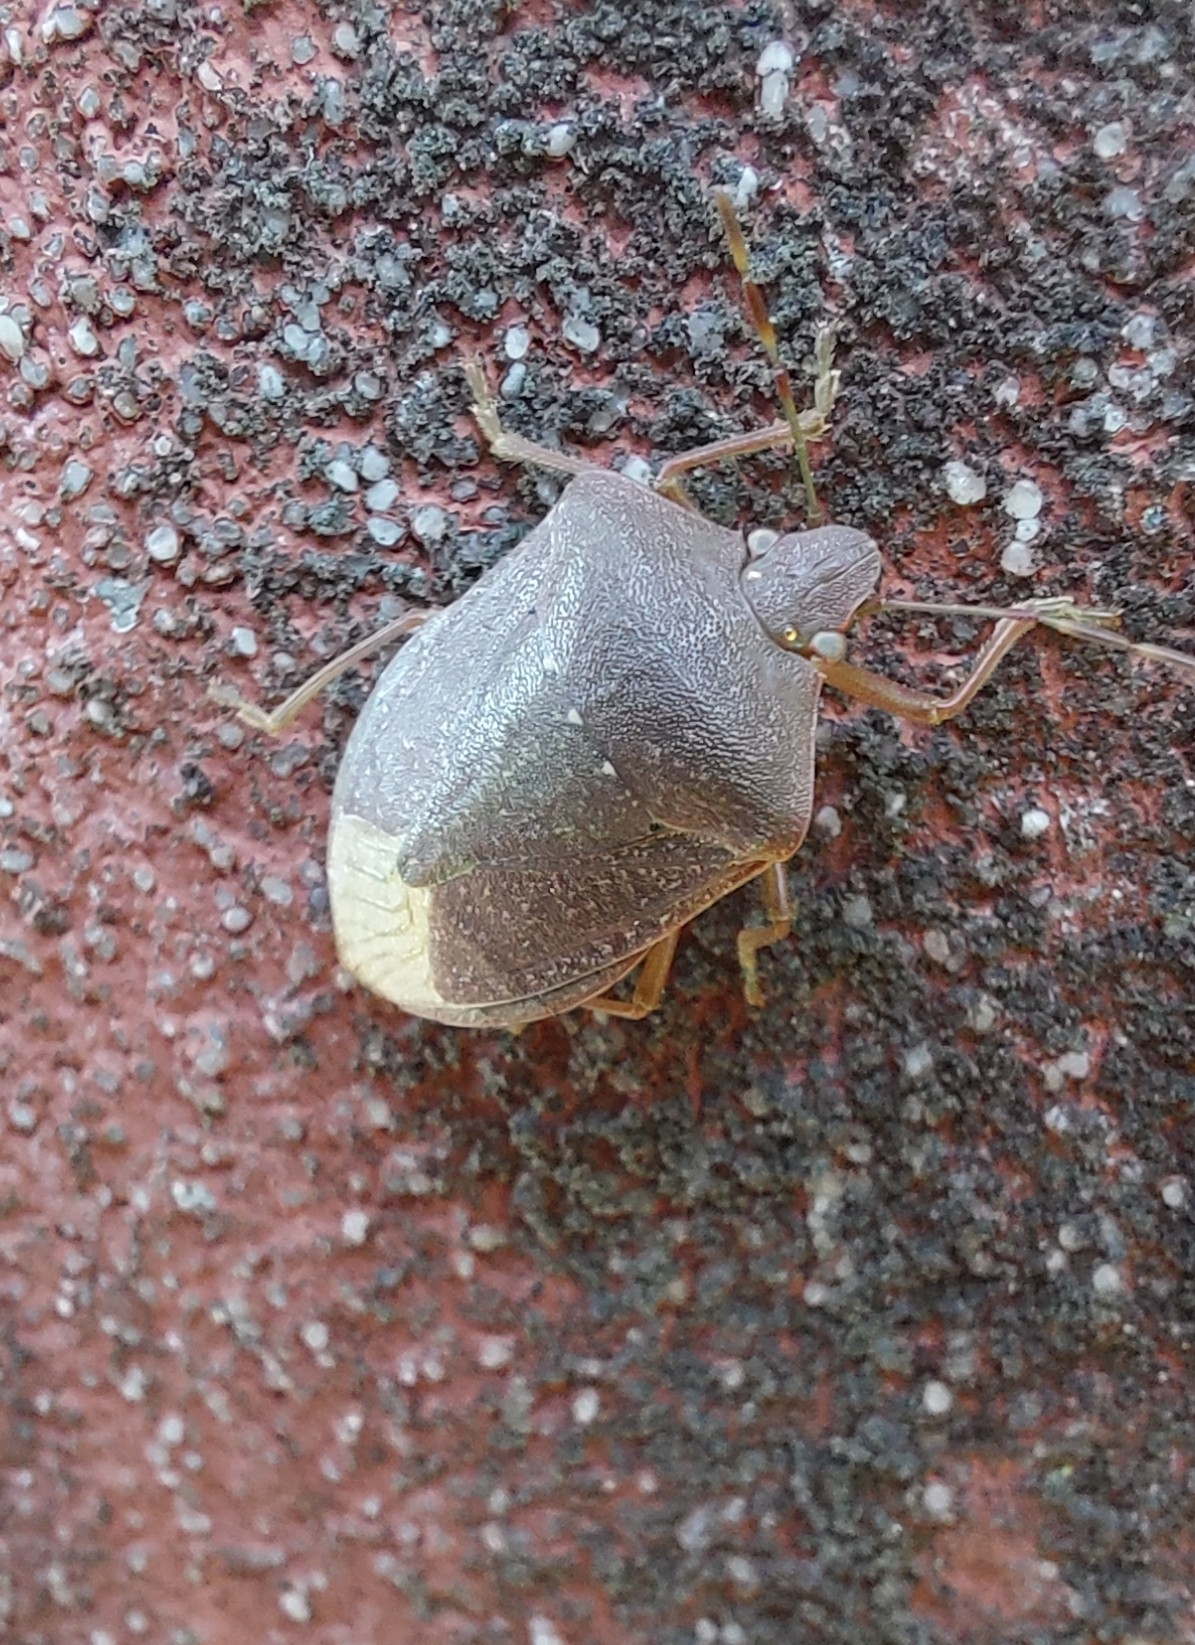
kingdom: Animalia
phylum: Arthropoda
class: Insecta
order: Hemiptera
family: Pentatomidae
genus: Nezara
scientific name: Nezara viridula
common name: Southern green stink bug
